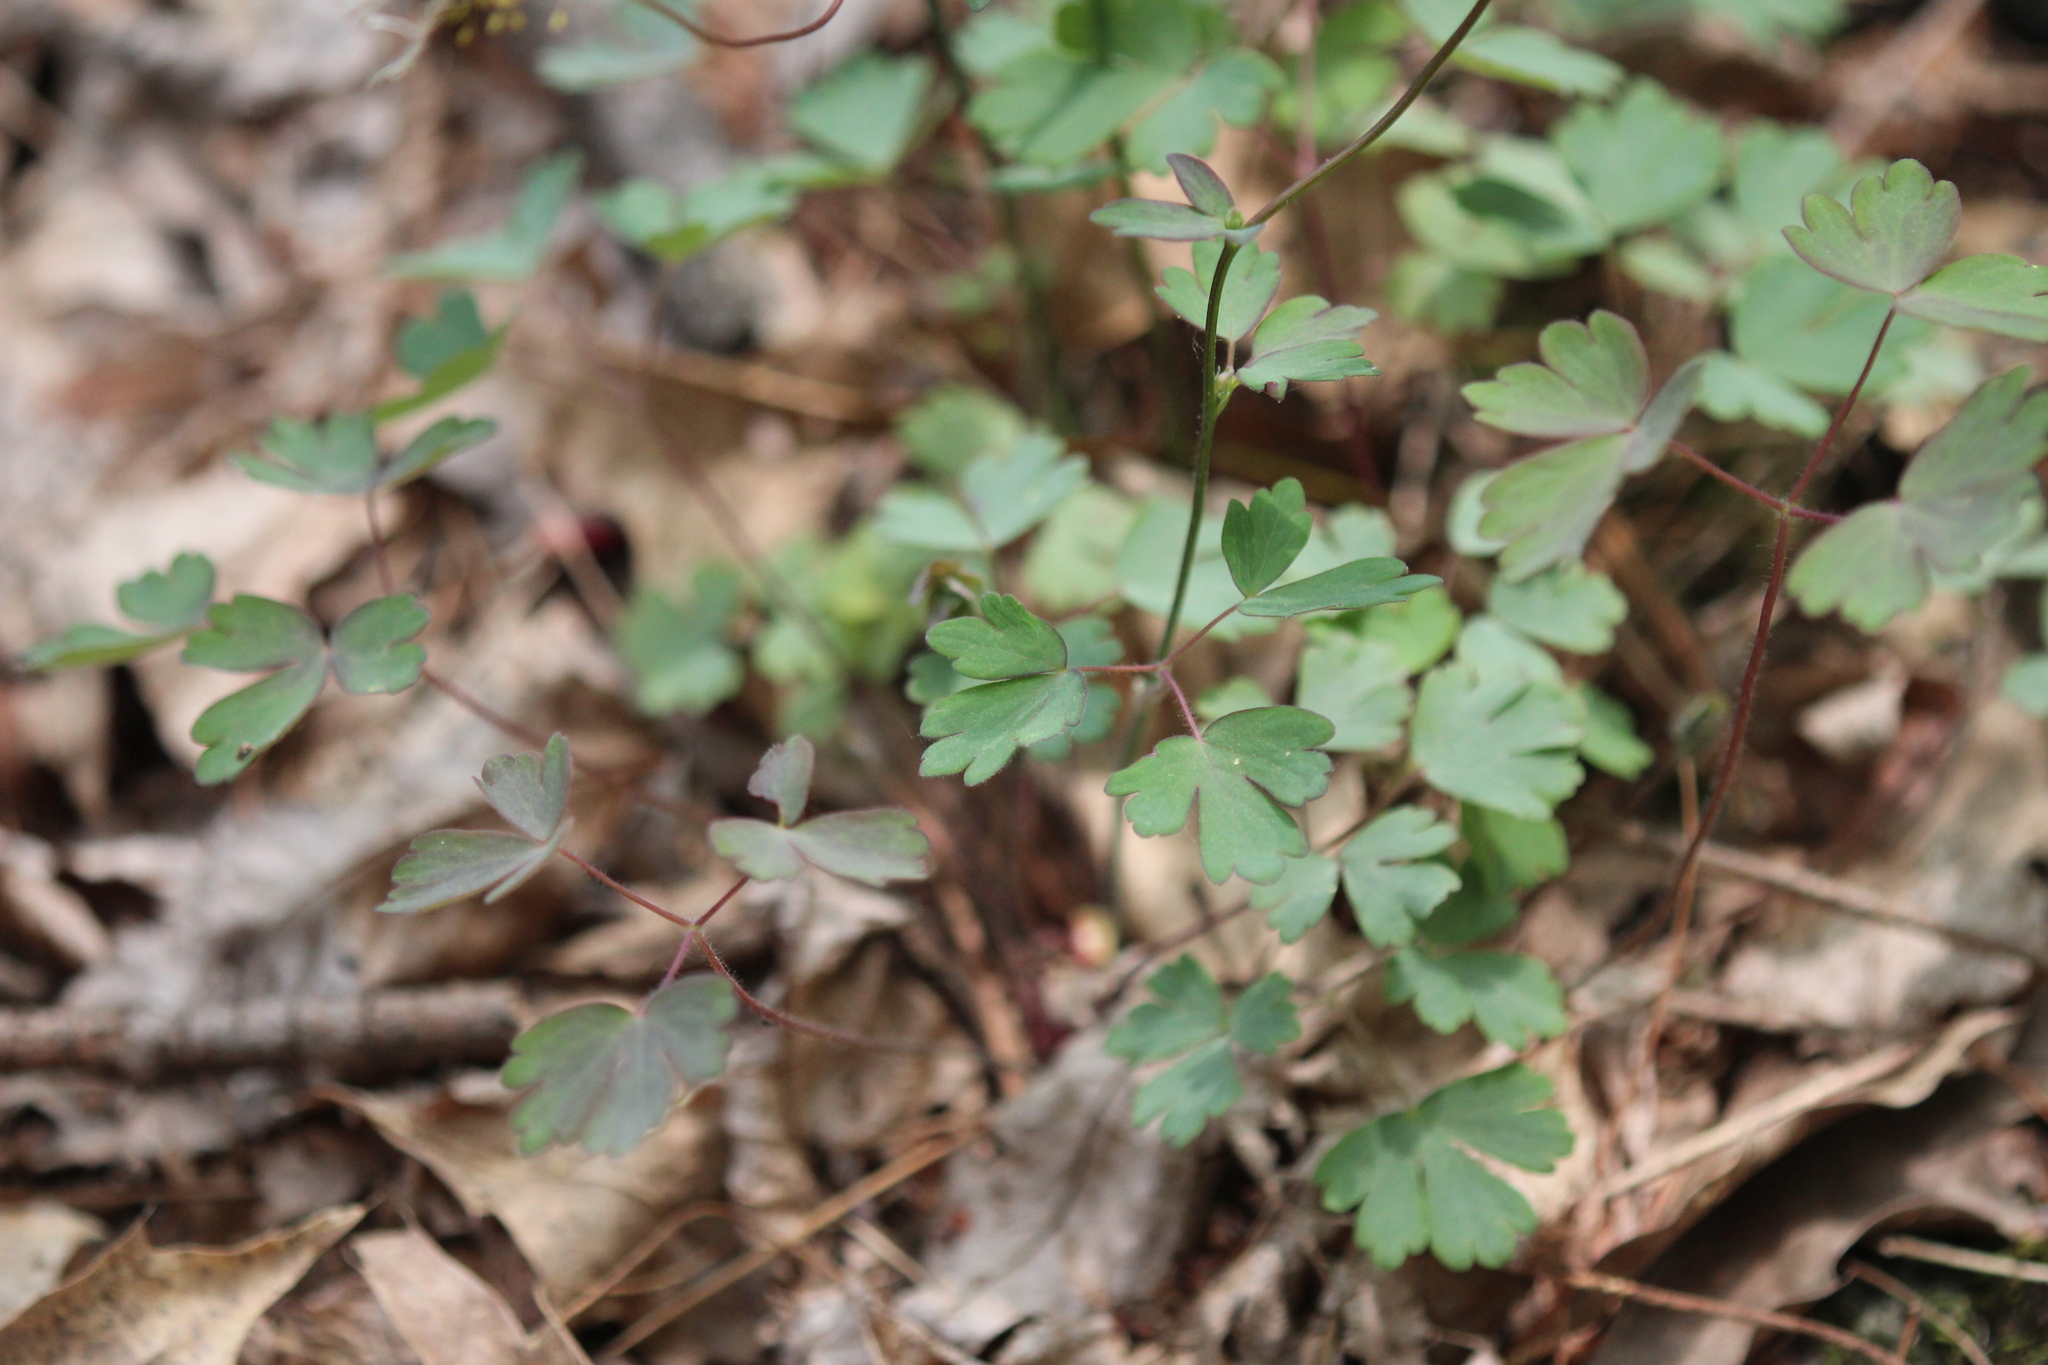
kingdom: Plantae
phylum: Tracheophyta
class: Magnoliopsida
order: Ranunculales
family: Ranunculaceae
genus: Aquilegia
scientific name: Aquilegia canadensis
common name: American columbine
